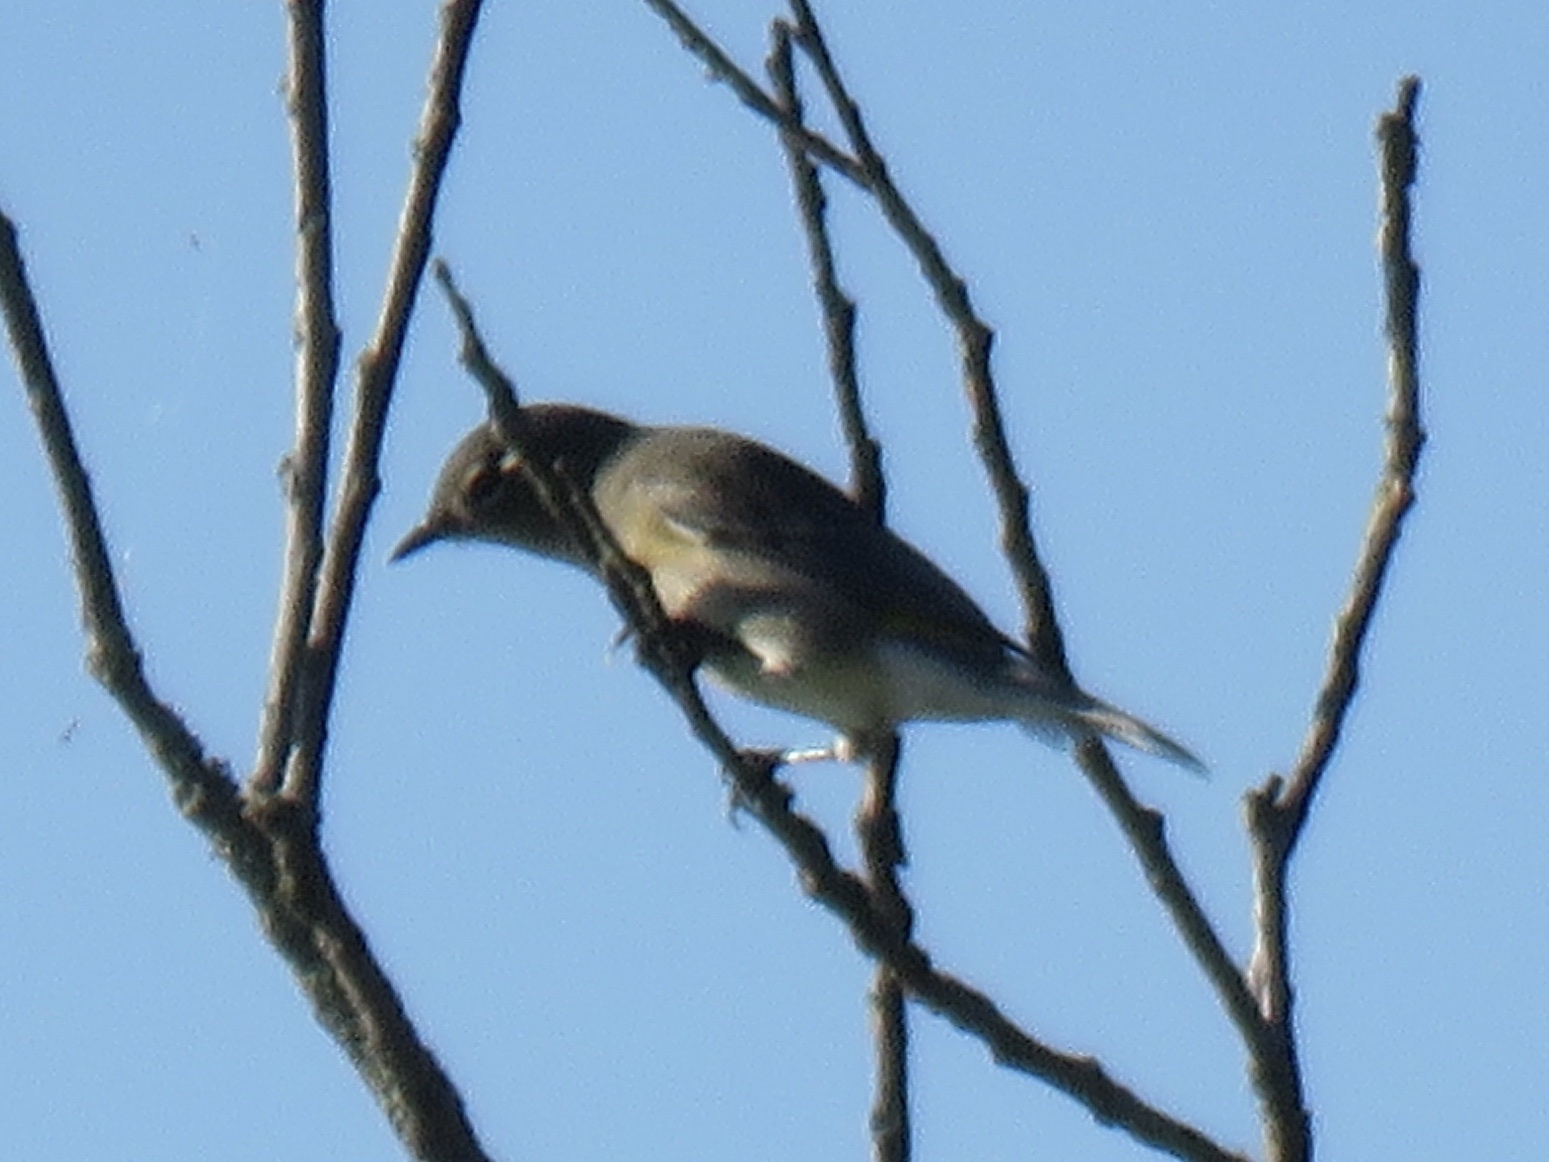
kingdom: Animalia
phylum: Chordata
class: Aves
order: Passeriformes
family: Vireonidae
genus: Vireo
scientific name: Vireo gilvus
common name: Warbling vireo
